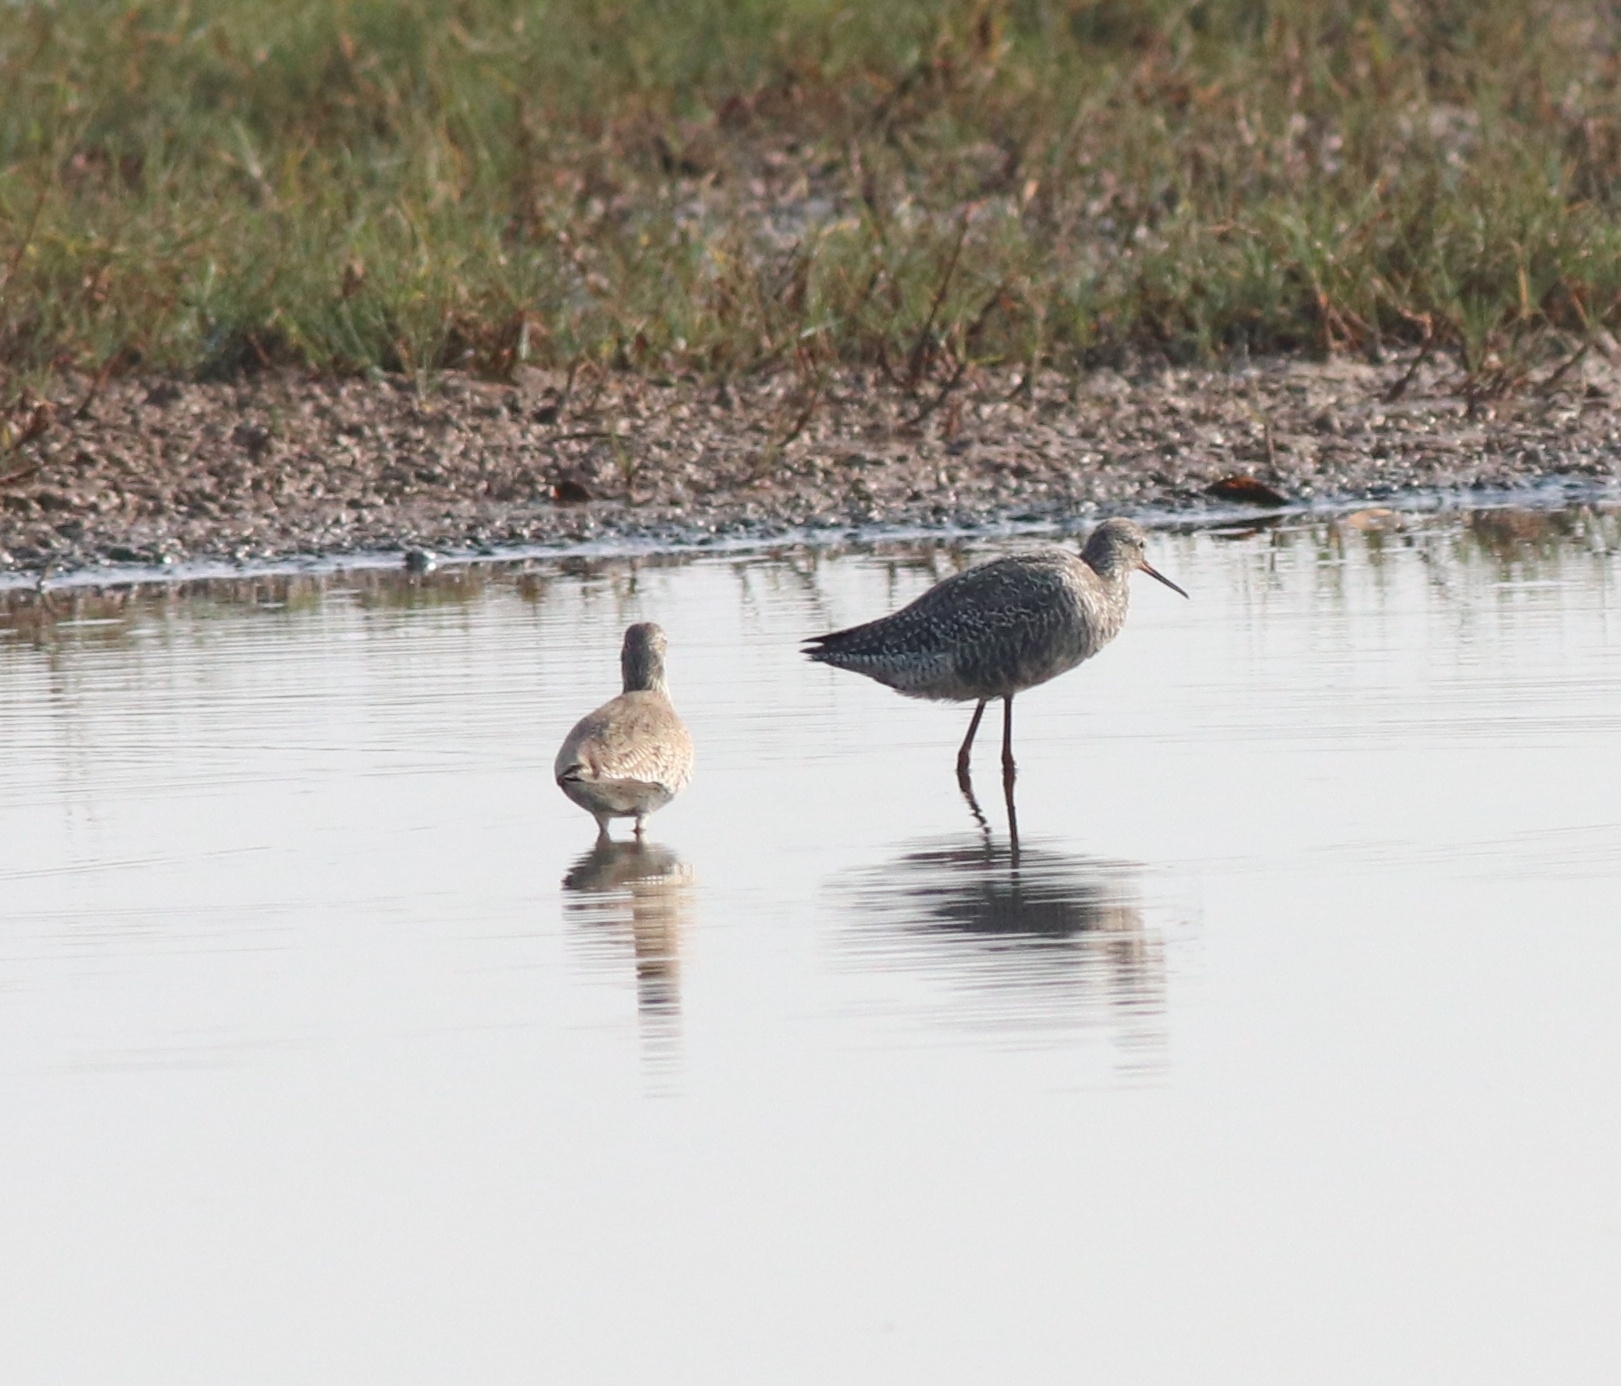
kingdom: Animalia
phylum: Chordata
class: Aves
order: Charadriiformes
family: Scolopacidae
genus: Tringa
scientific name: Tringa erythropus
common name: Spotted redshank
